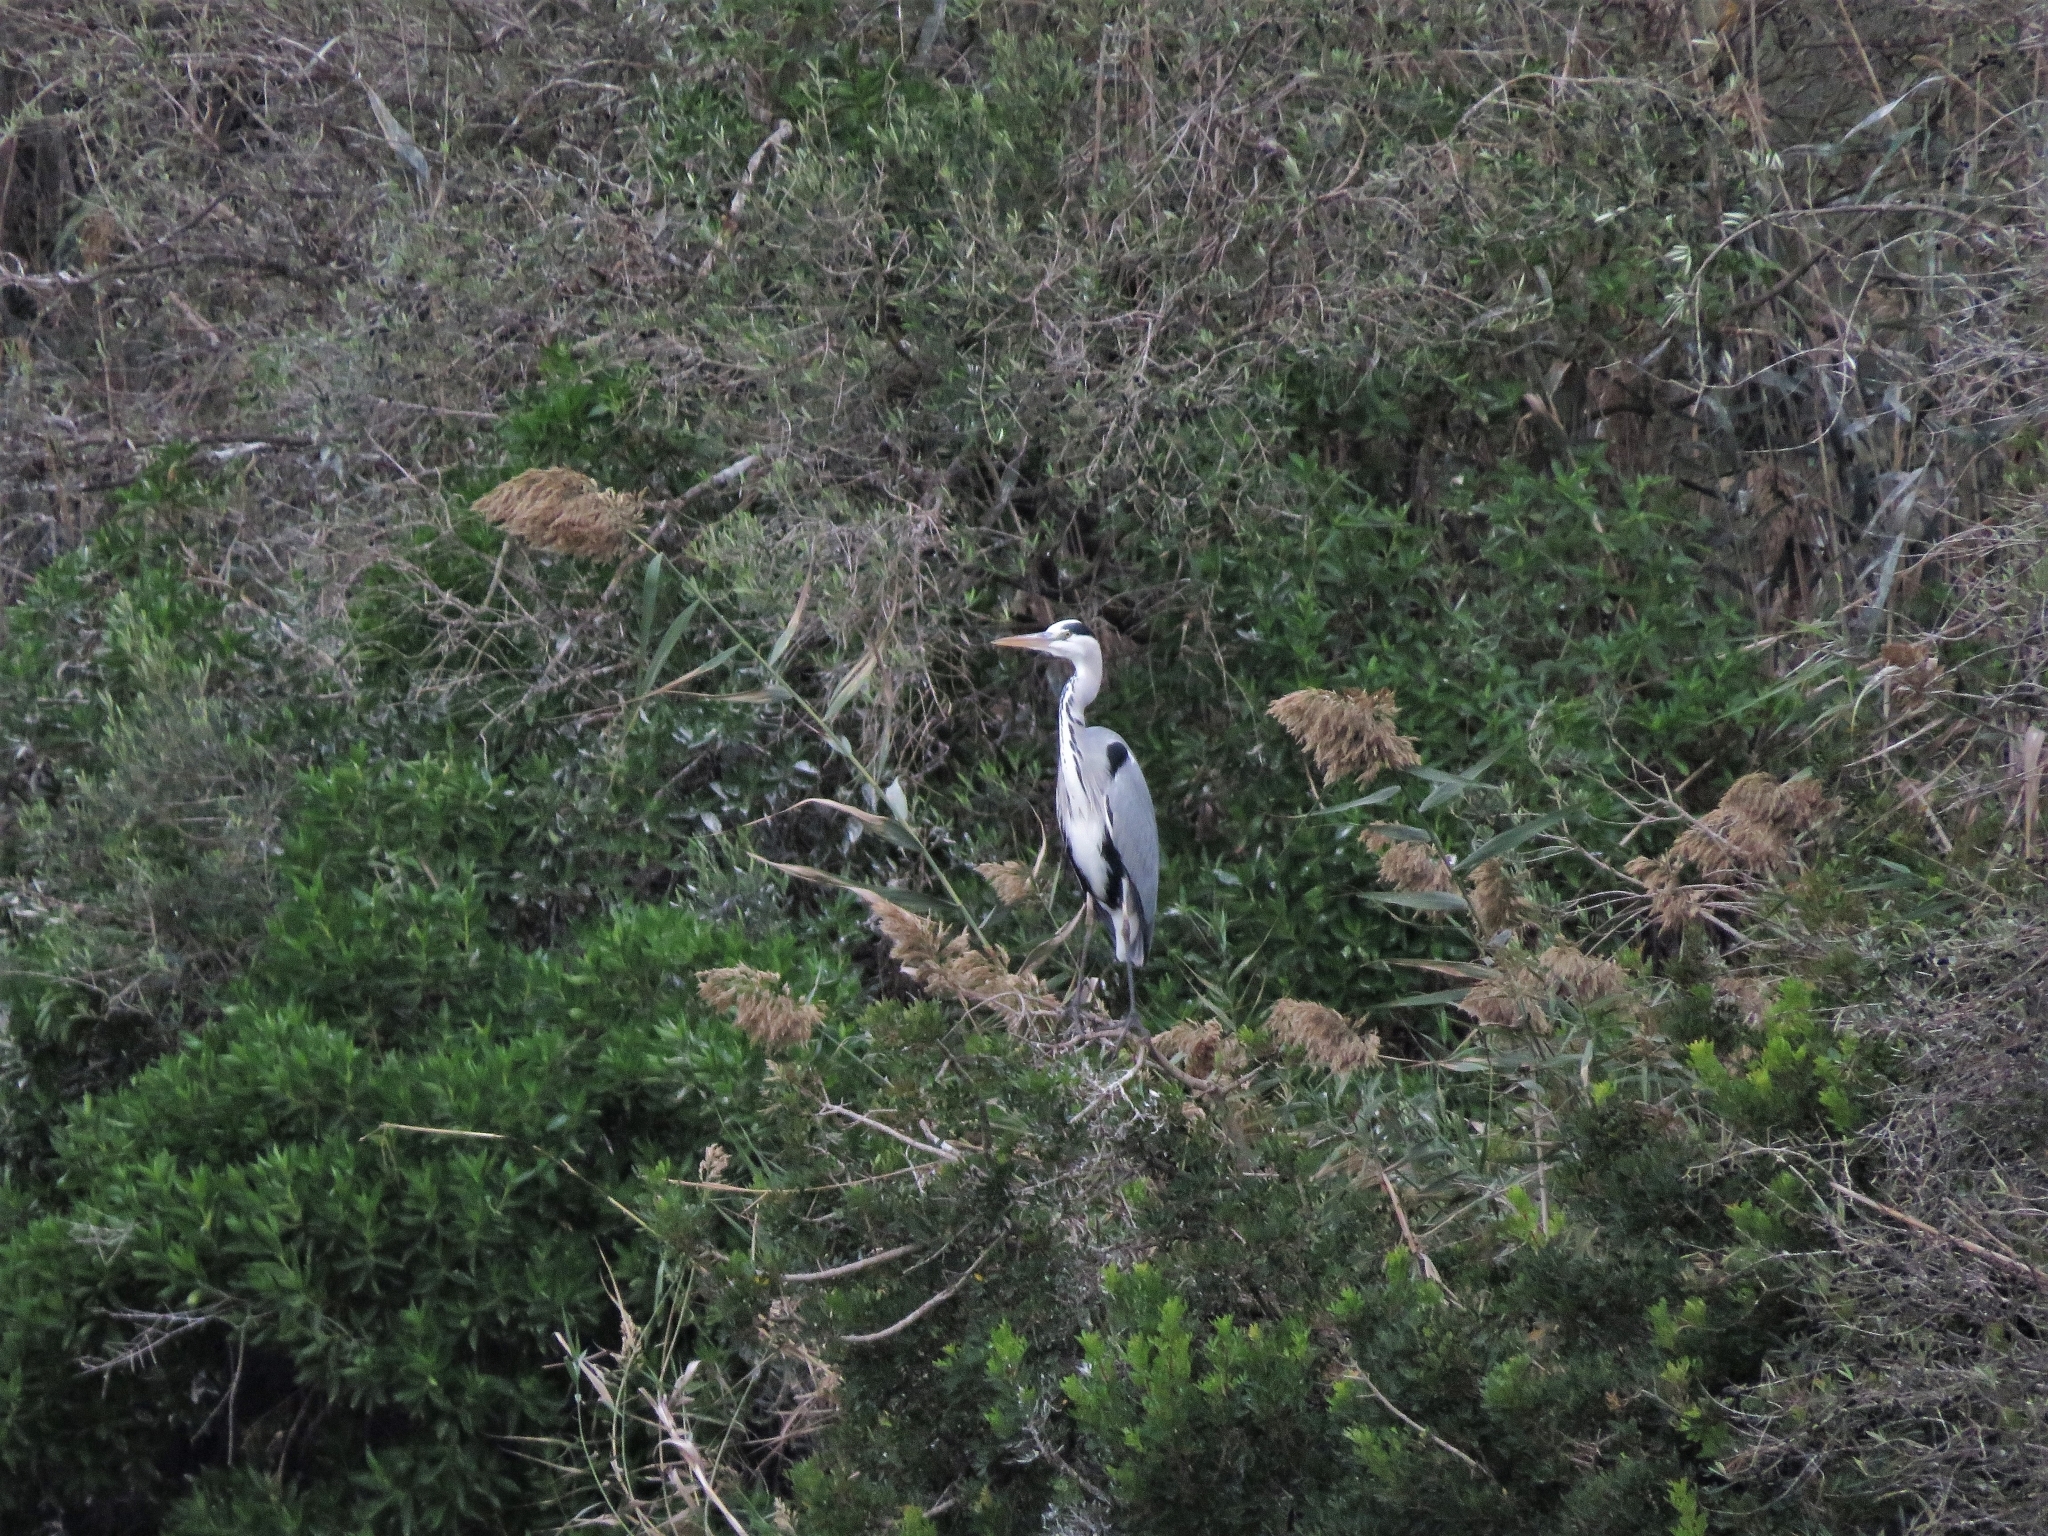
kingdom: Animalia
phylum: Chordata
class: Aves
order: Pelecaniformes
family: Ardeidae
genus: Ardea
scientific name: Ardea cinerea
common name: Grey heron
